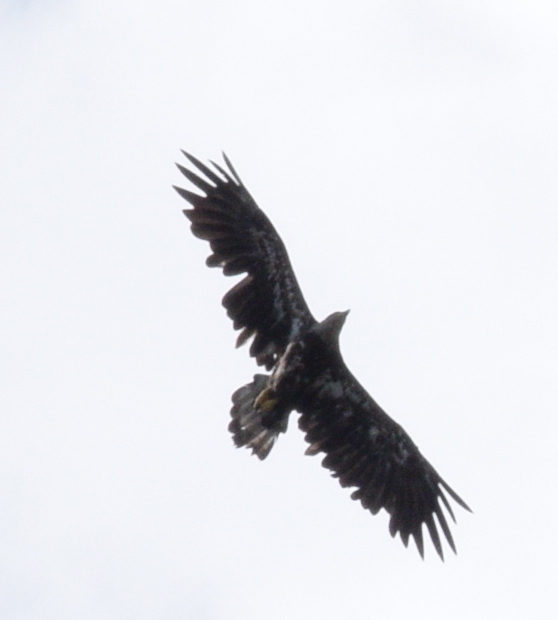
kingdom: Animalia
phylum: Chordata
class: Aves
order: Accipitriformes
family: Accipitridae
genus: Haliaeetus
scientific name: Haliaeetus leucocephalus
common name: Bald eagle
